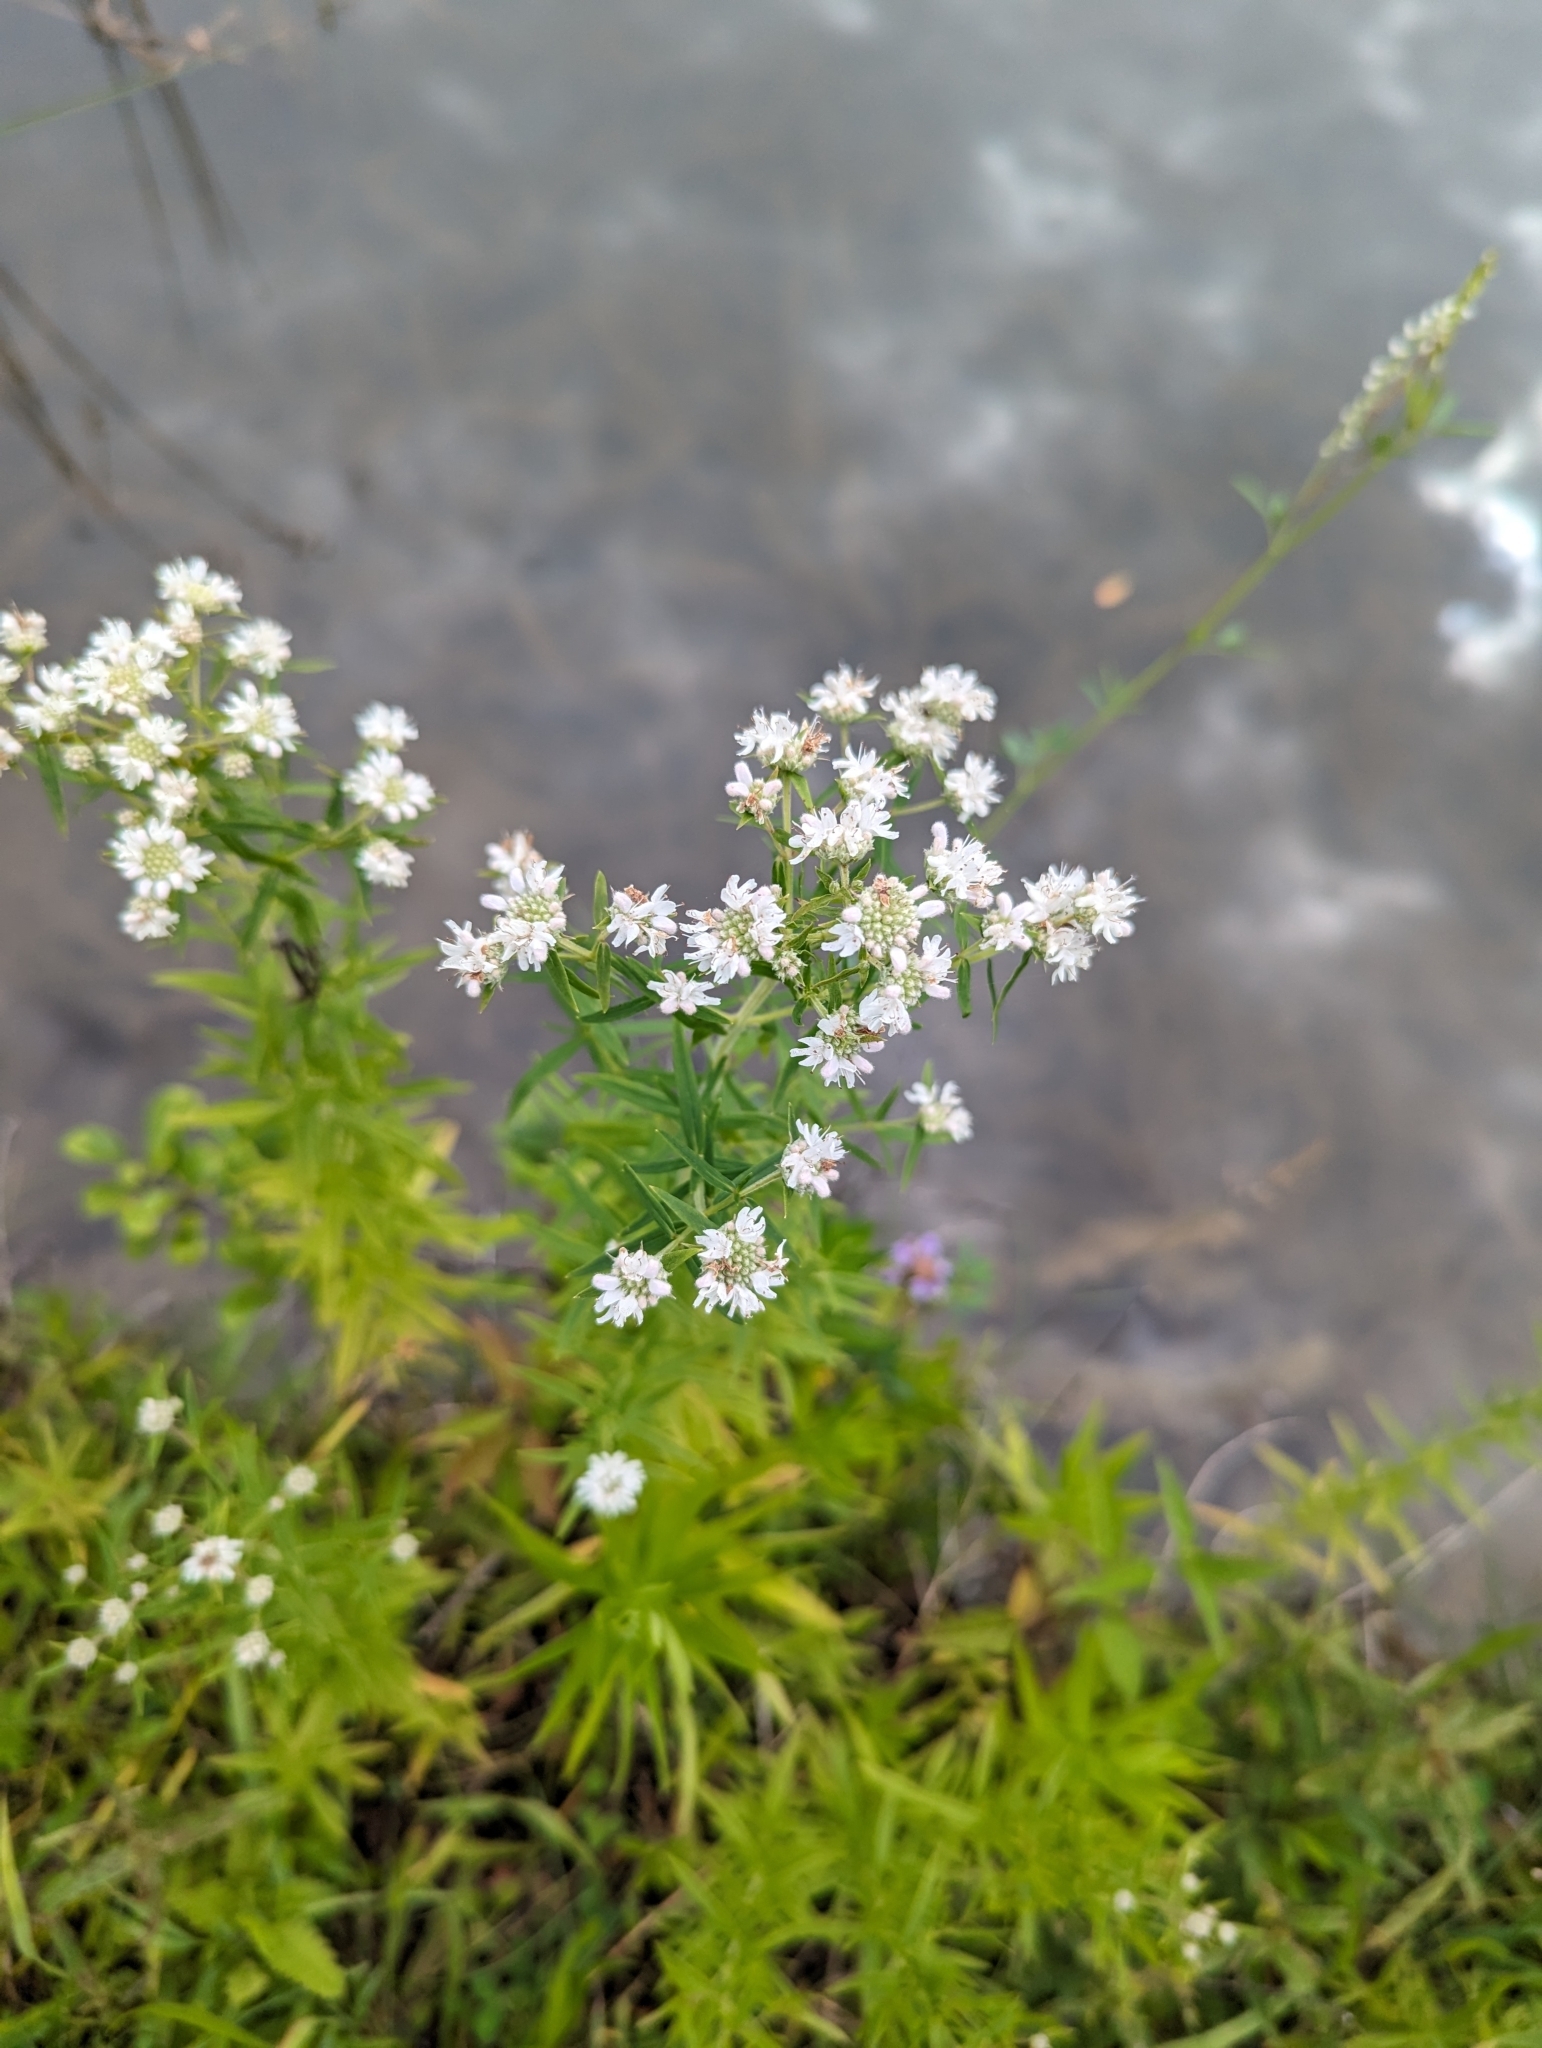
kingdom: Plantae
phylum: Tracheophyta
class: Magnoliopsida
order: Lamiales
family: Lamiaceae
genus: Pycnanthemum
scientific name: Pycnanthemum virginianum
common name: Virginia mountain-mint
